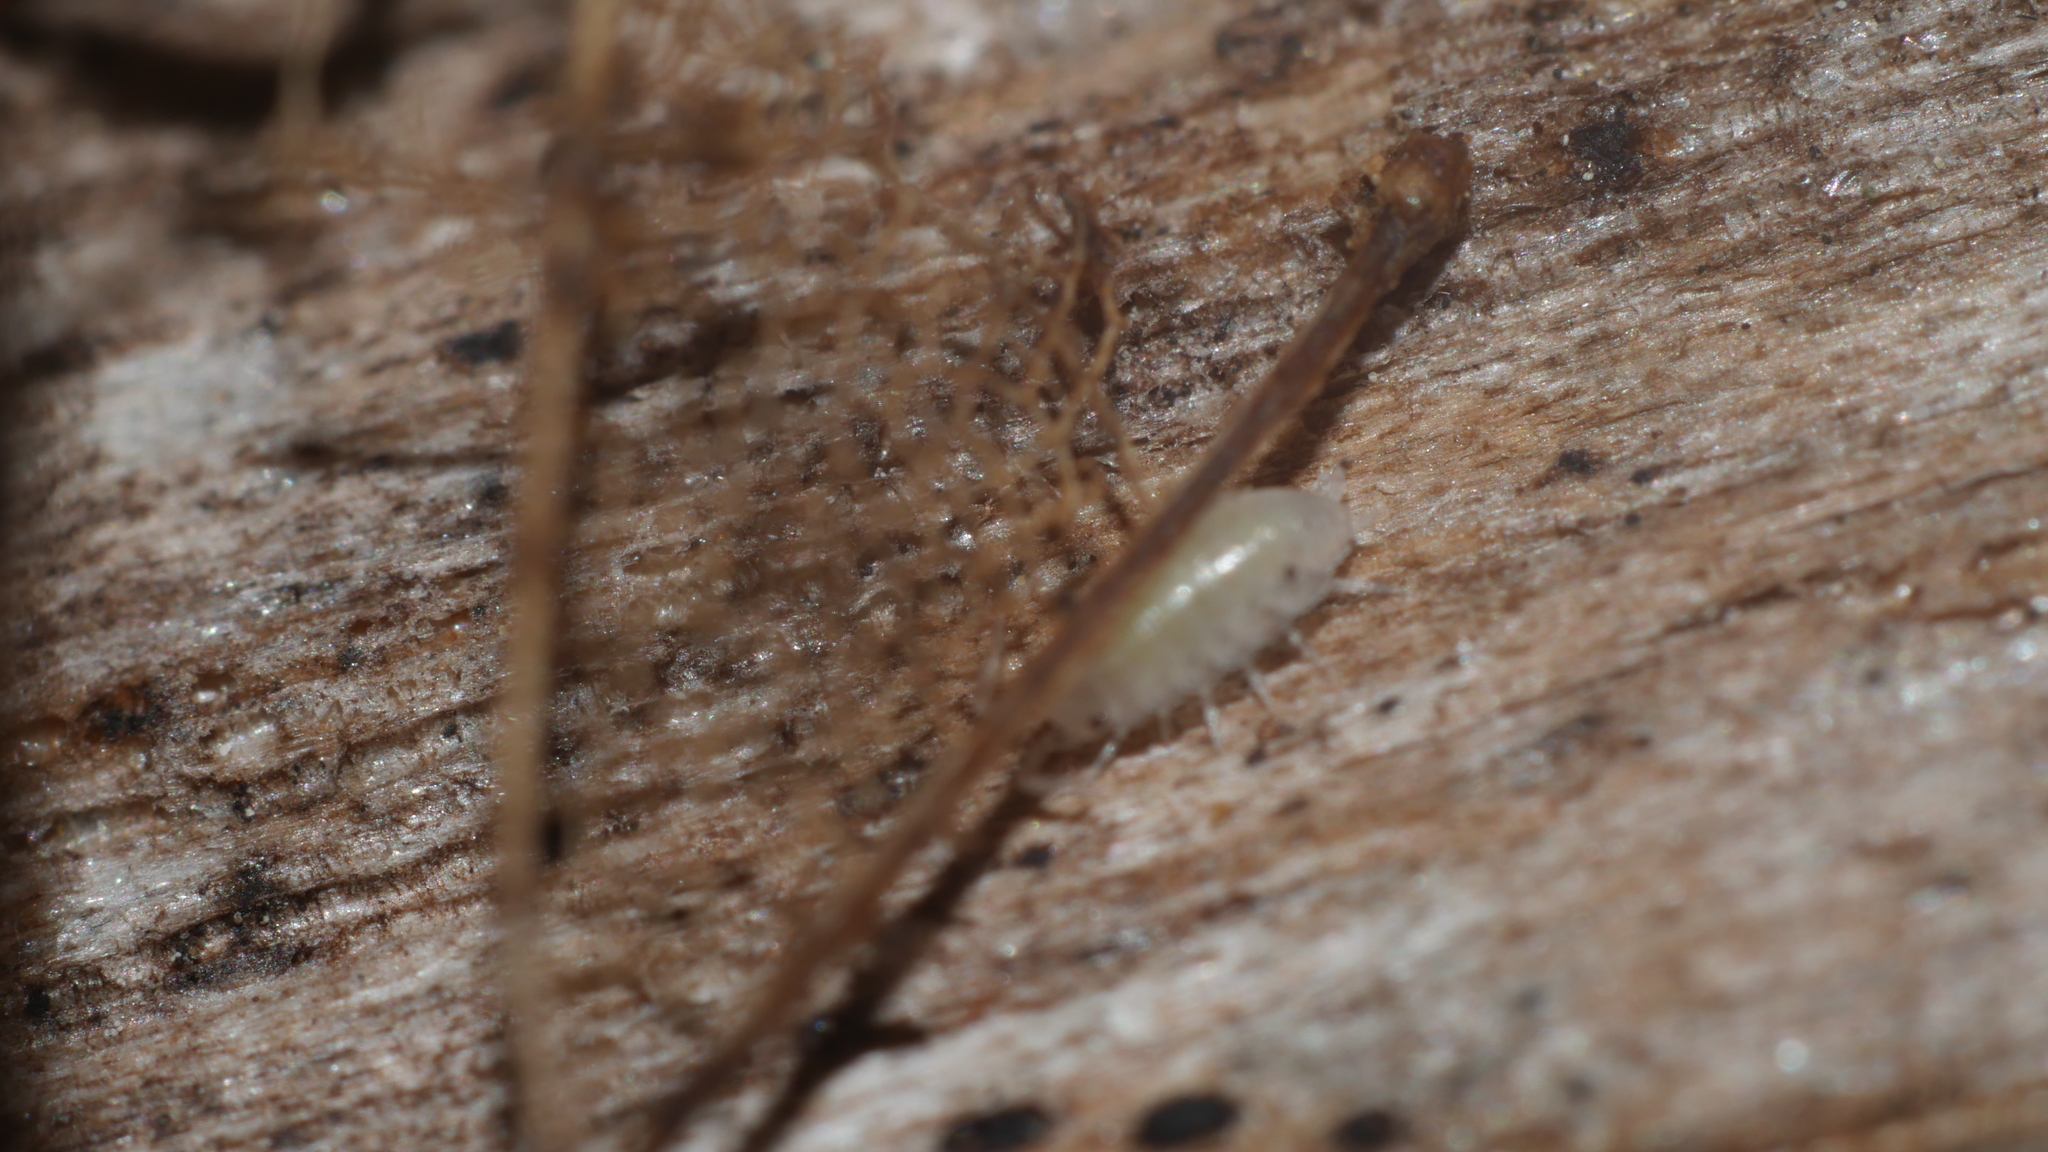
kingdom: Animalia
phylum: Arthropoda
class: Malacostraca
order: Isopoda
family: Philosciidae
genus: Philoscia
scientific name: Philoscia muscorum
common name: Common striped woodlouse
